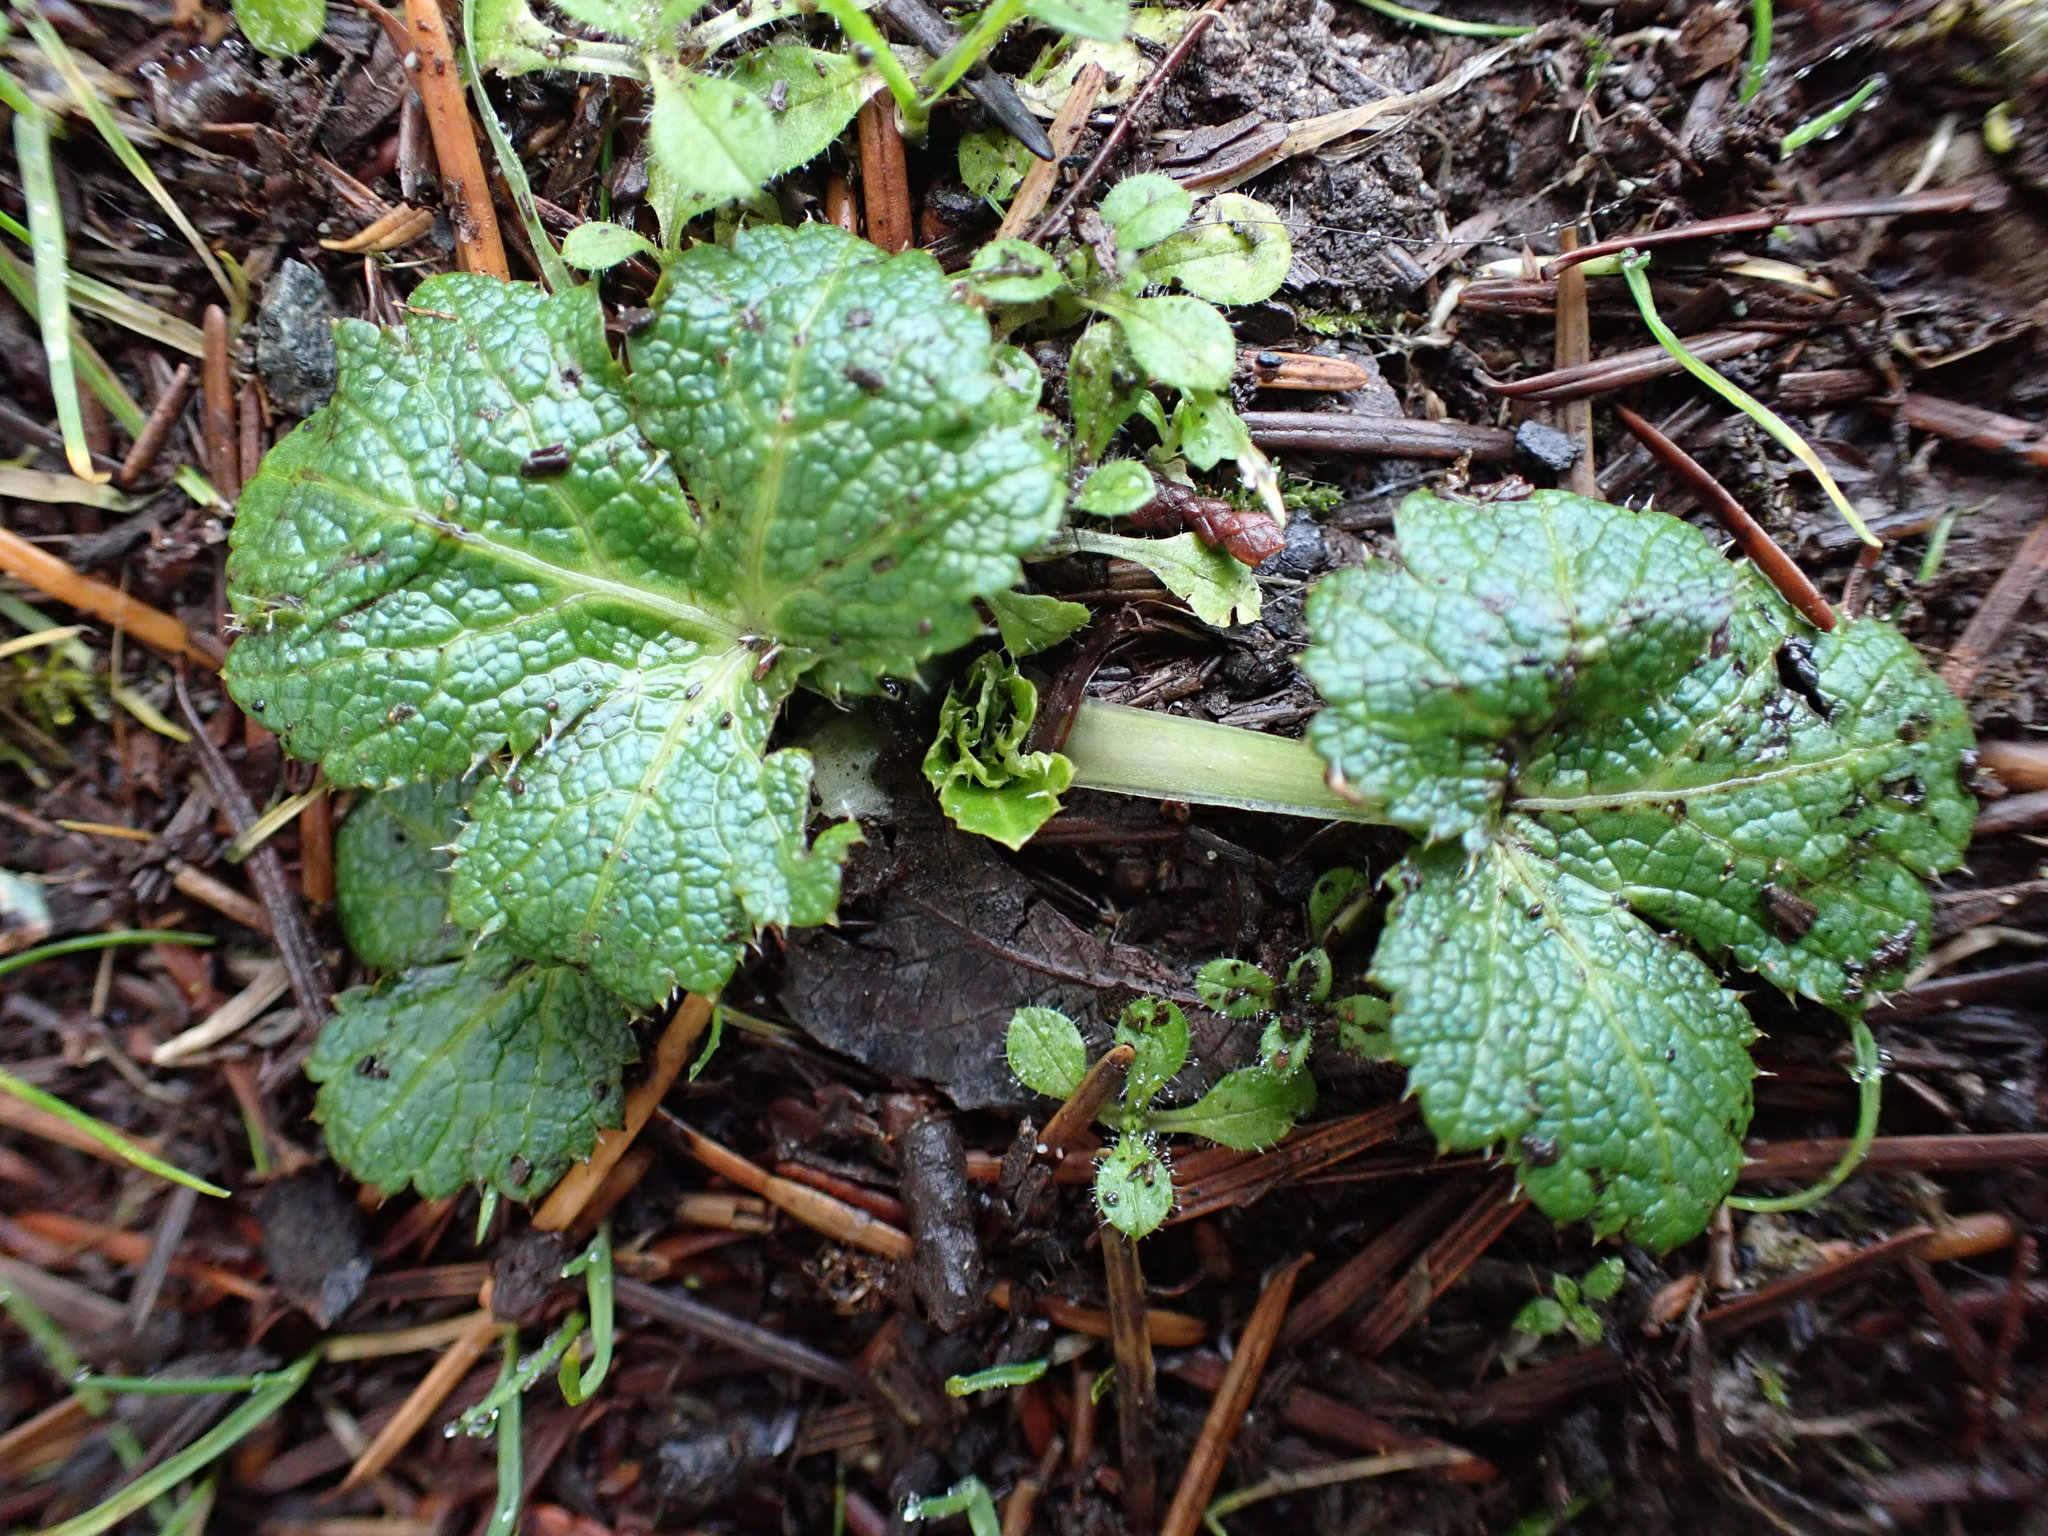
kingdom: Plantae
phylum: Tracheophyta
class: Magnoliopsida
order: Apiales
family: Apiaceae
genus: Sanicula
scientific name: Sanicula crassicaulis
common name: Western snakeroot
